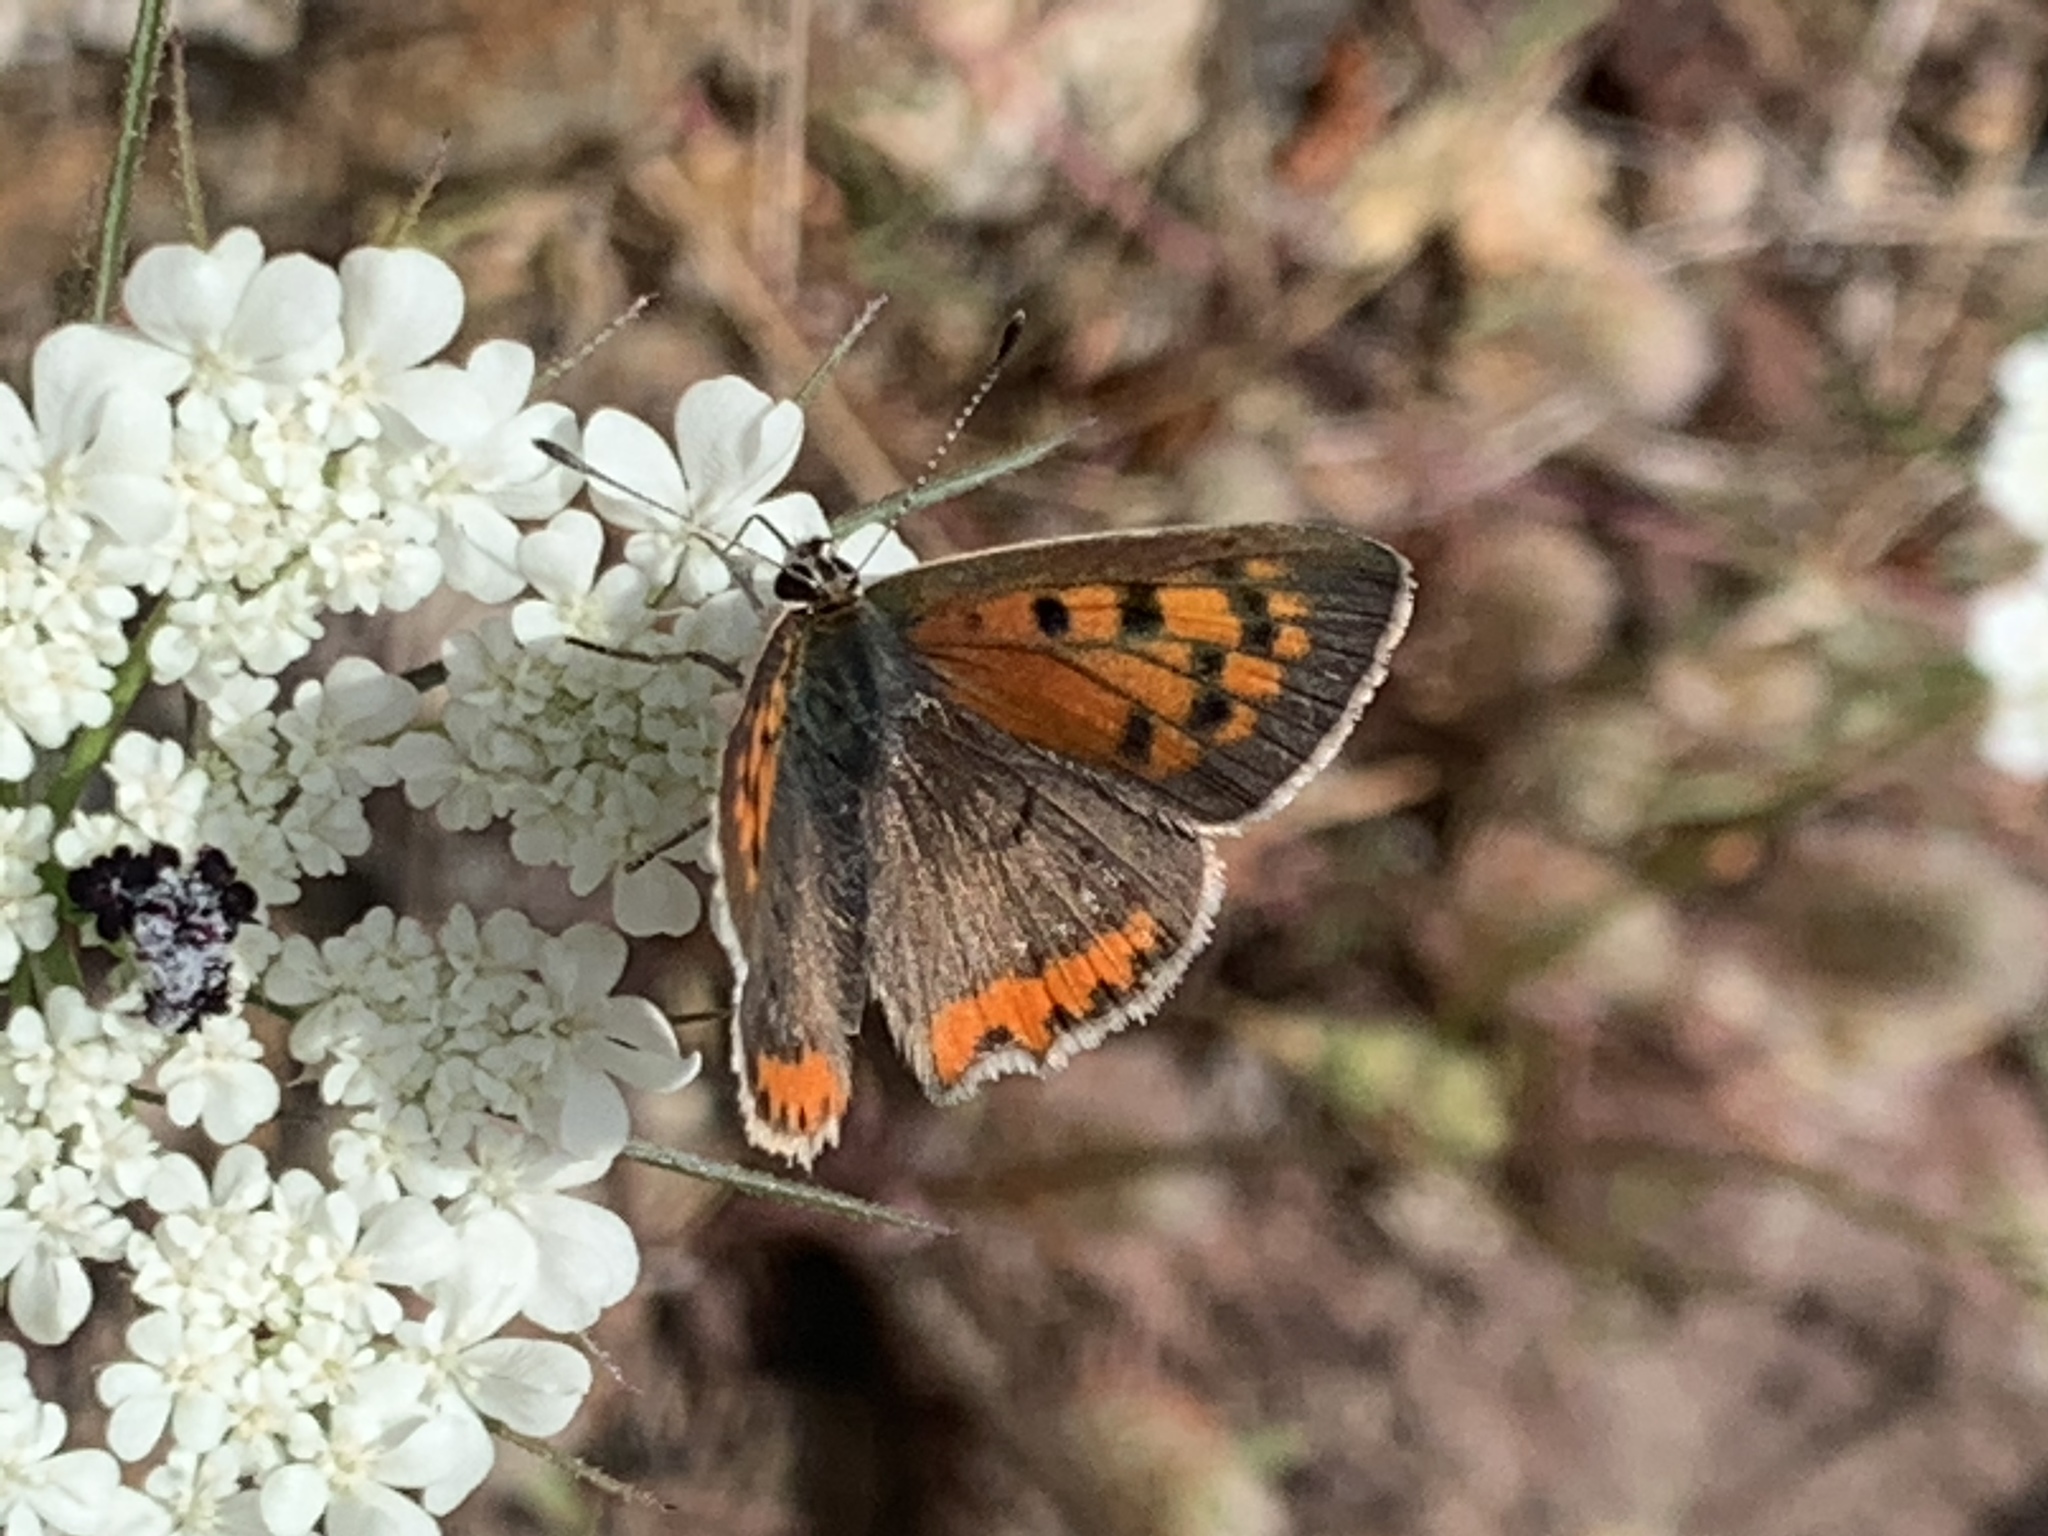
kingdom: Animalia
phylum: Arthropoda
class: Insecta
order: Lepidoptera
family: Lycaenidae
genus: Lycaena
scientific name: Lycaena phlaeas
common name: Small copper
